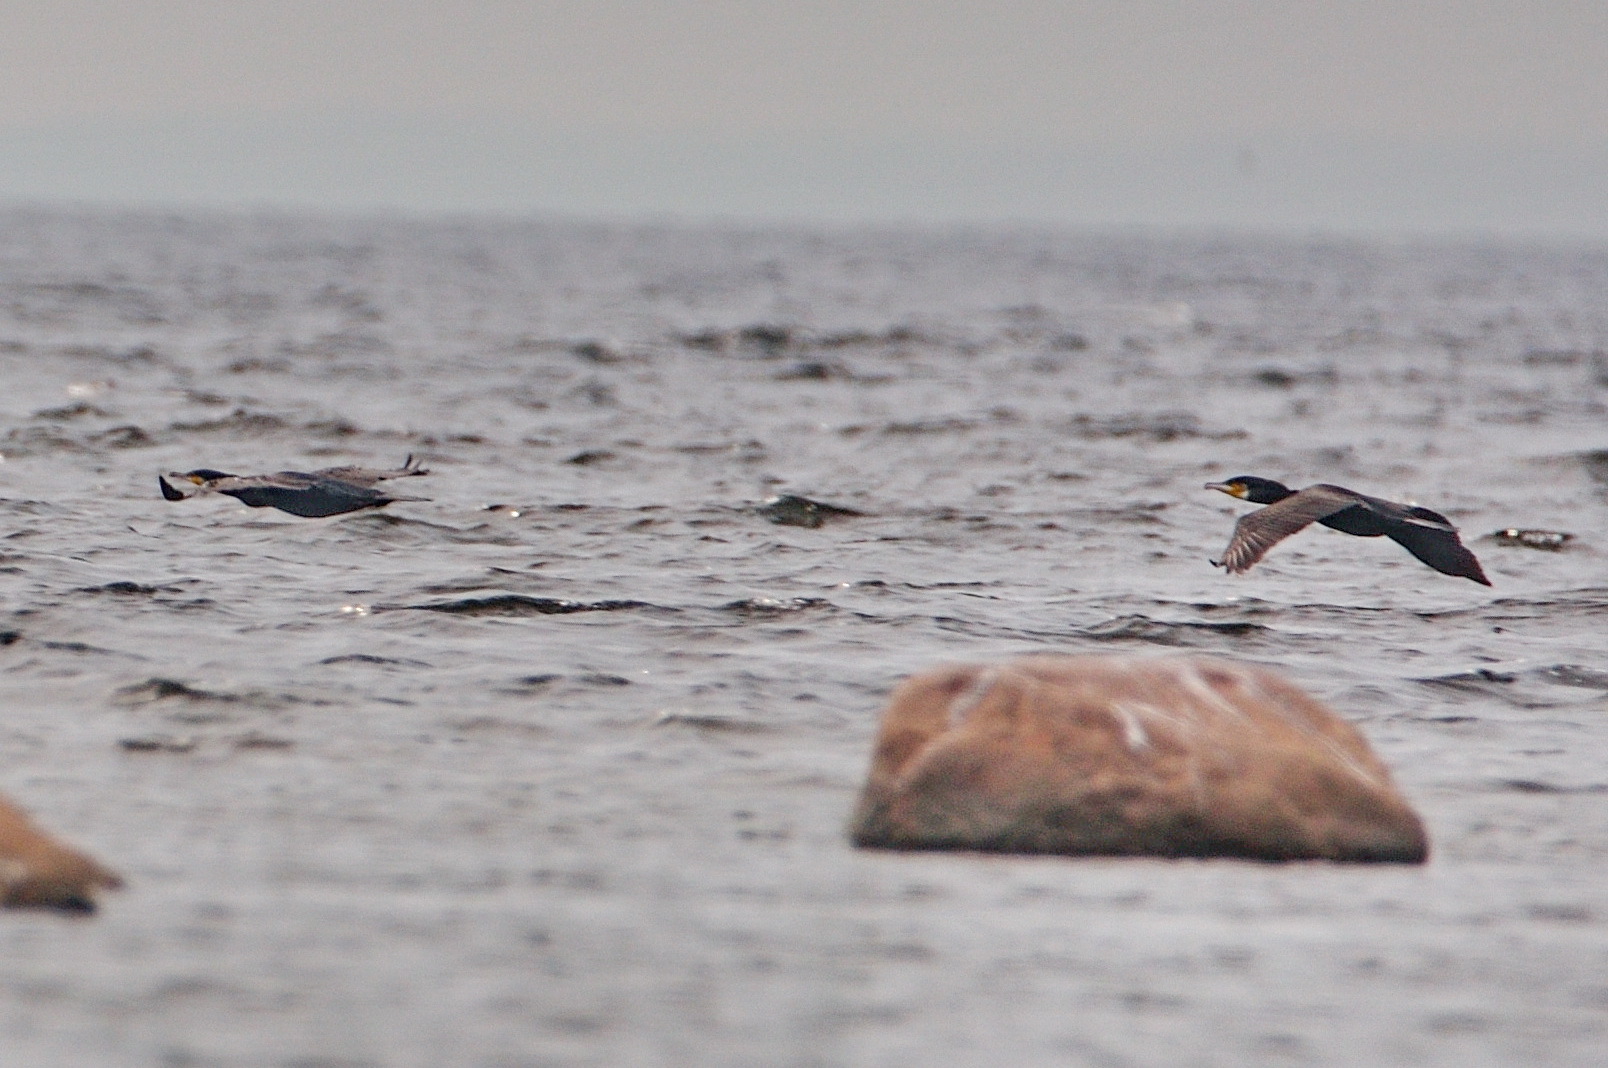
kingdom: Animalia
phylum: Chordata
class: Aves
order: Suliformes
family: Phalacrocoracidae
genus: Phalacrocorax
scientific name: Phalacrocorax carbo
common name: Great cormorant
